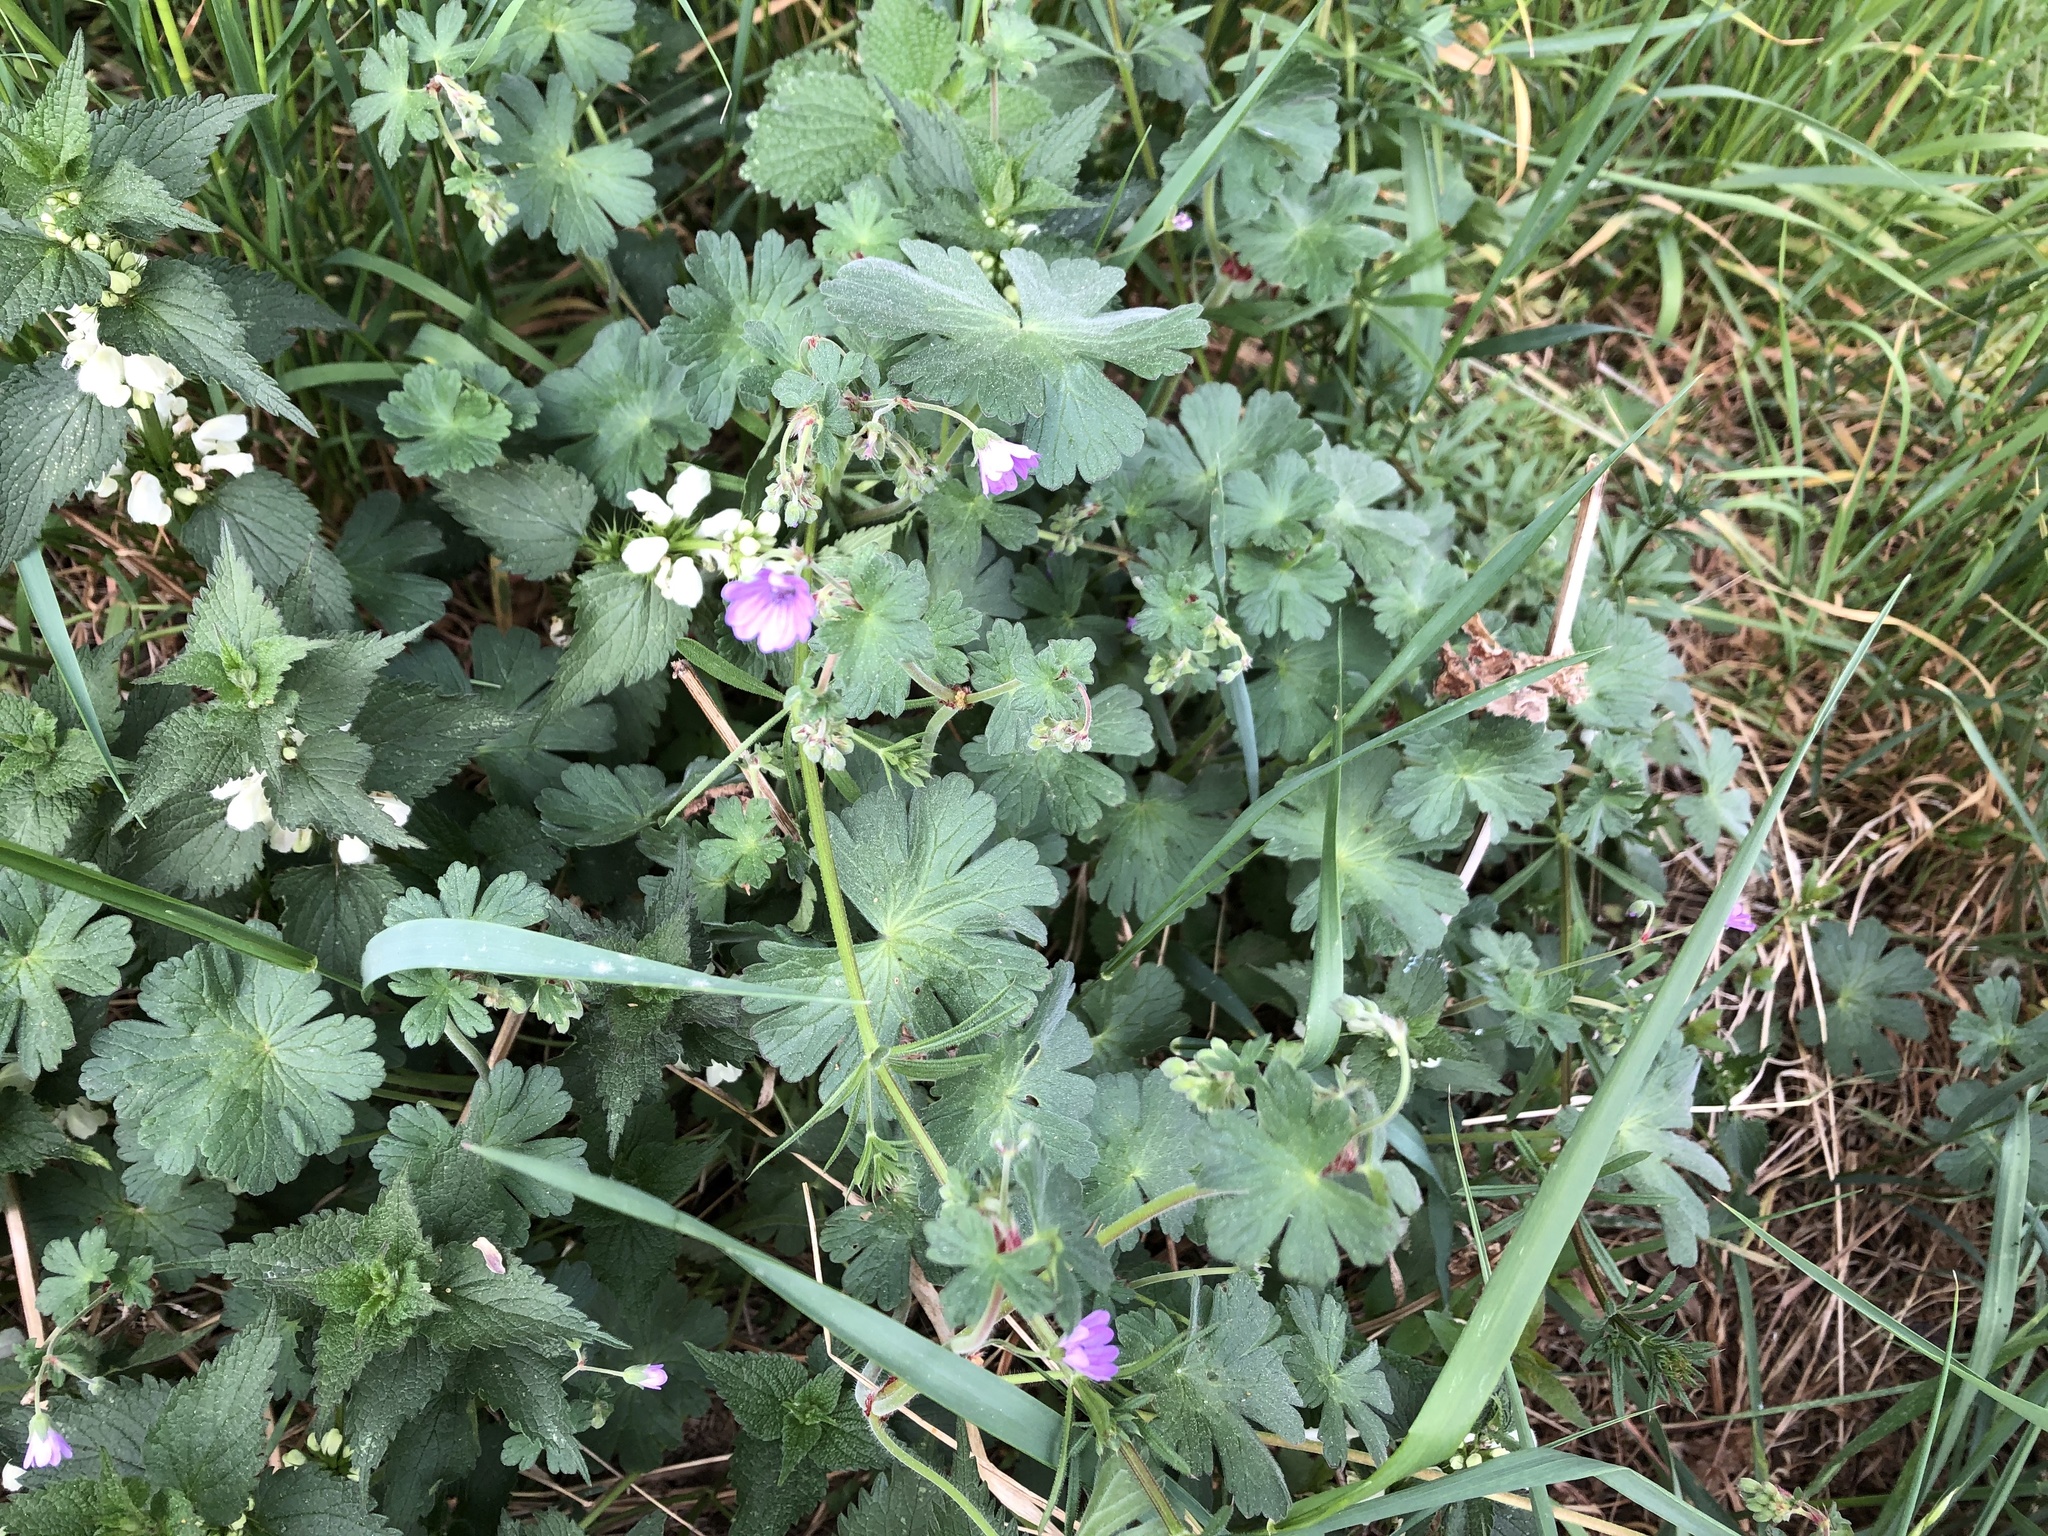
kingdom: Plantae
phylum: Tracheophyta
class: Magnoliopsida
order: Geraniales
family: Geraniaceae
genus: Geranium
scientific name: Geranium pyrenaicum
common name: Hedgerow crane's-bill
